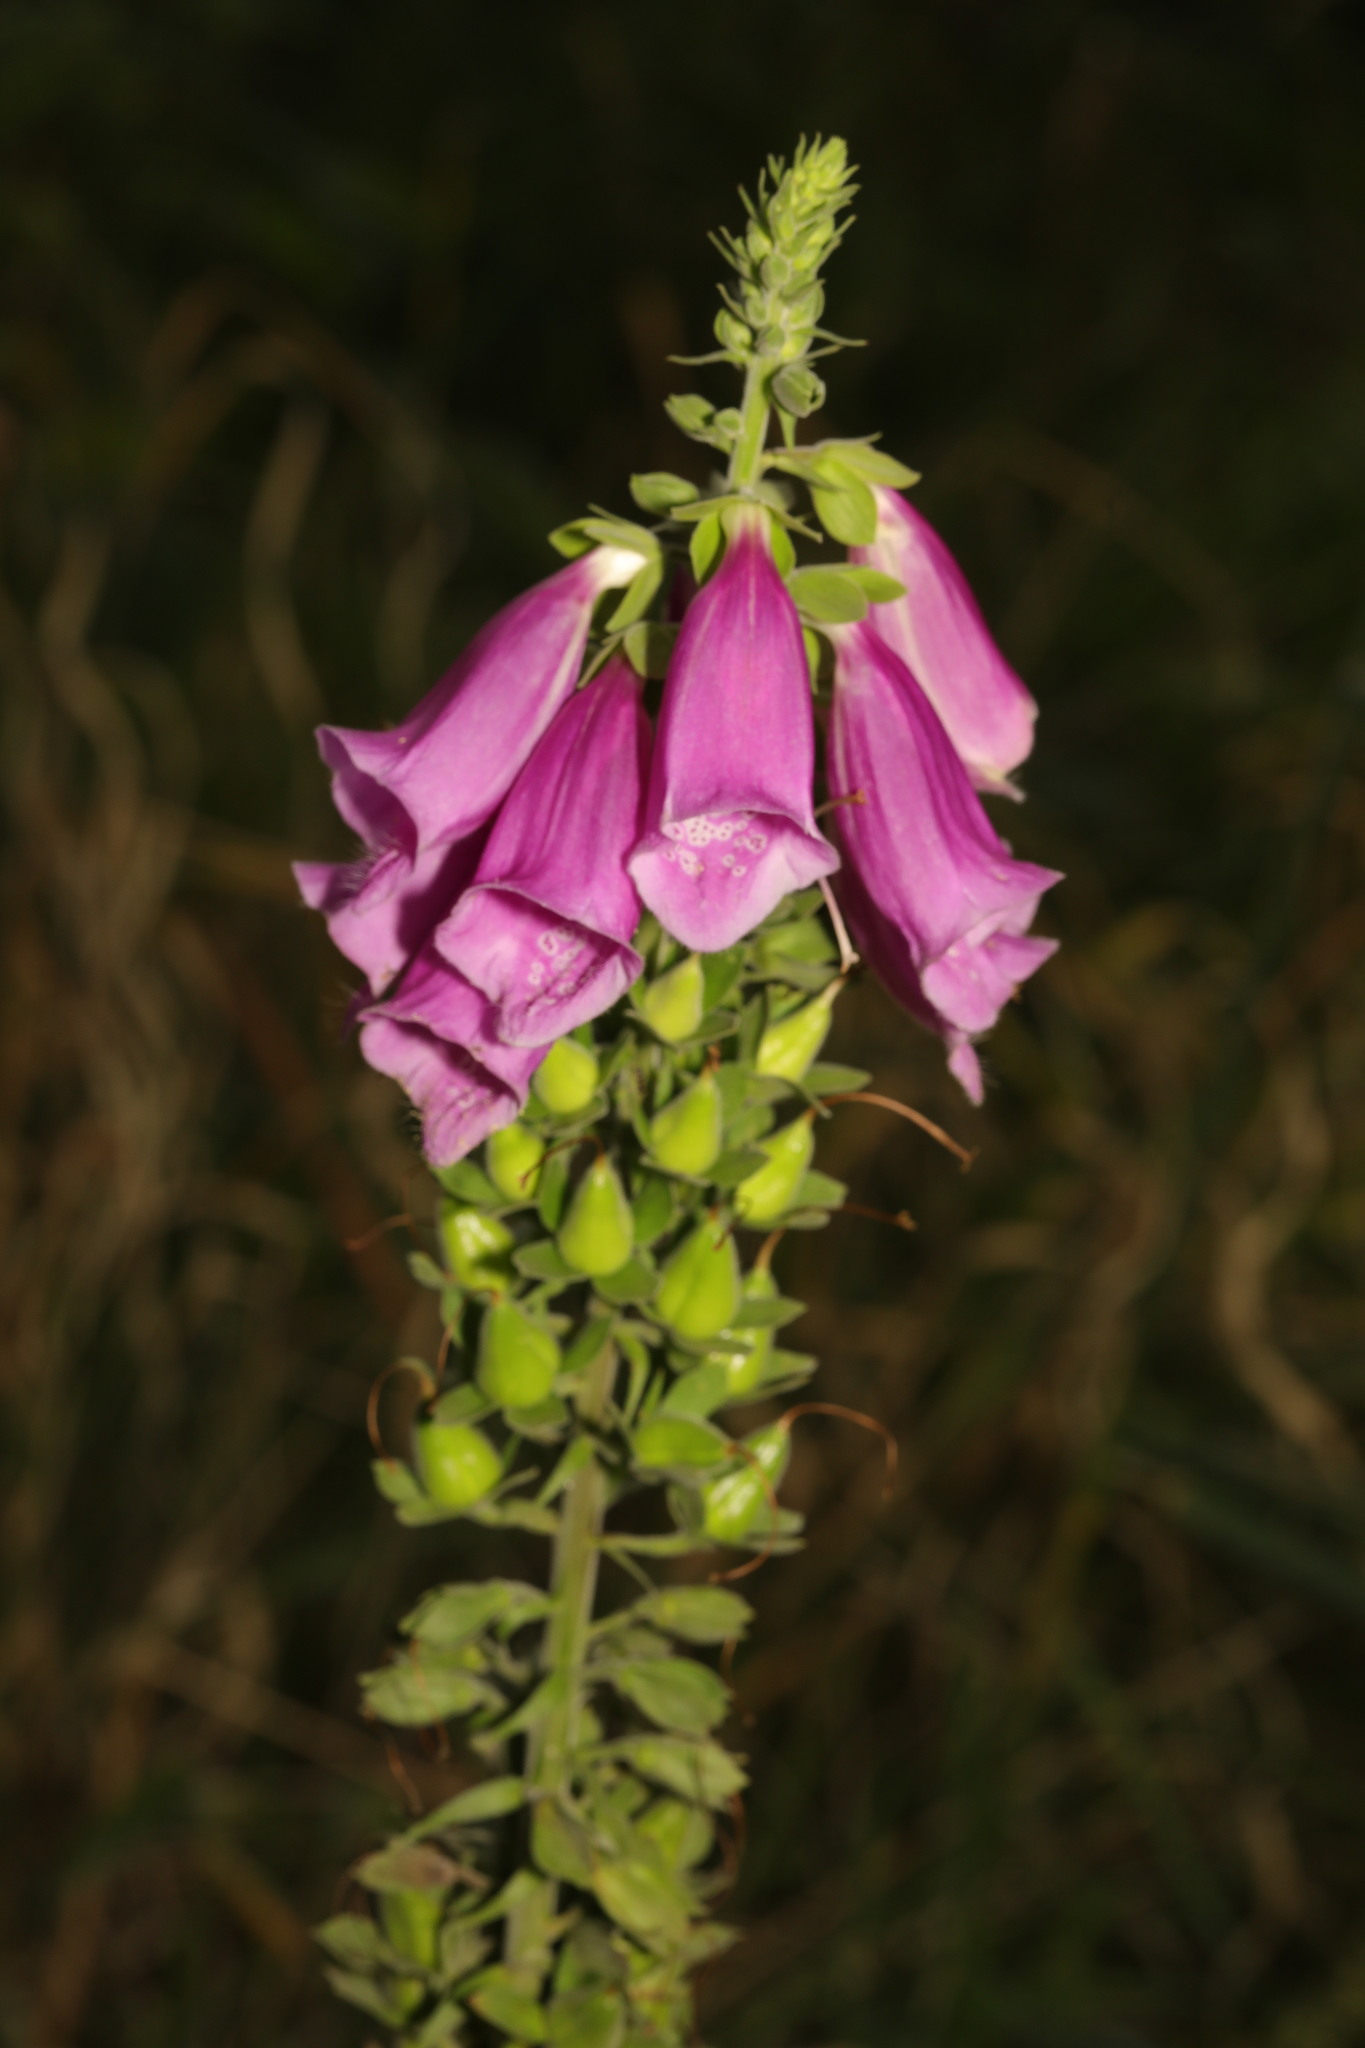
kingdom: Plantae
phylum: Tracheophyta
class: Magnoliopsida
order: Lamiales
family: Plantaginaceae
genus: Digitalis
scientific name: Digitalis purpurea
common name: Foxglove
